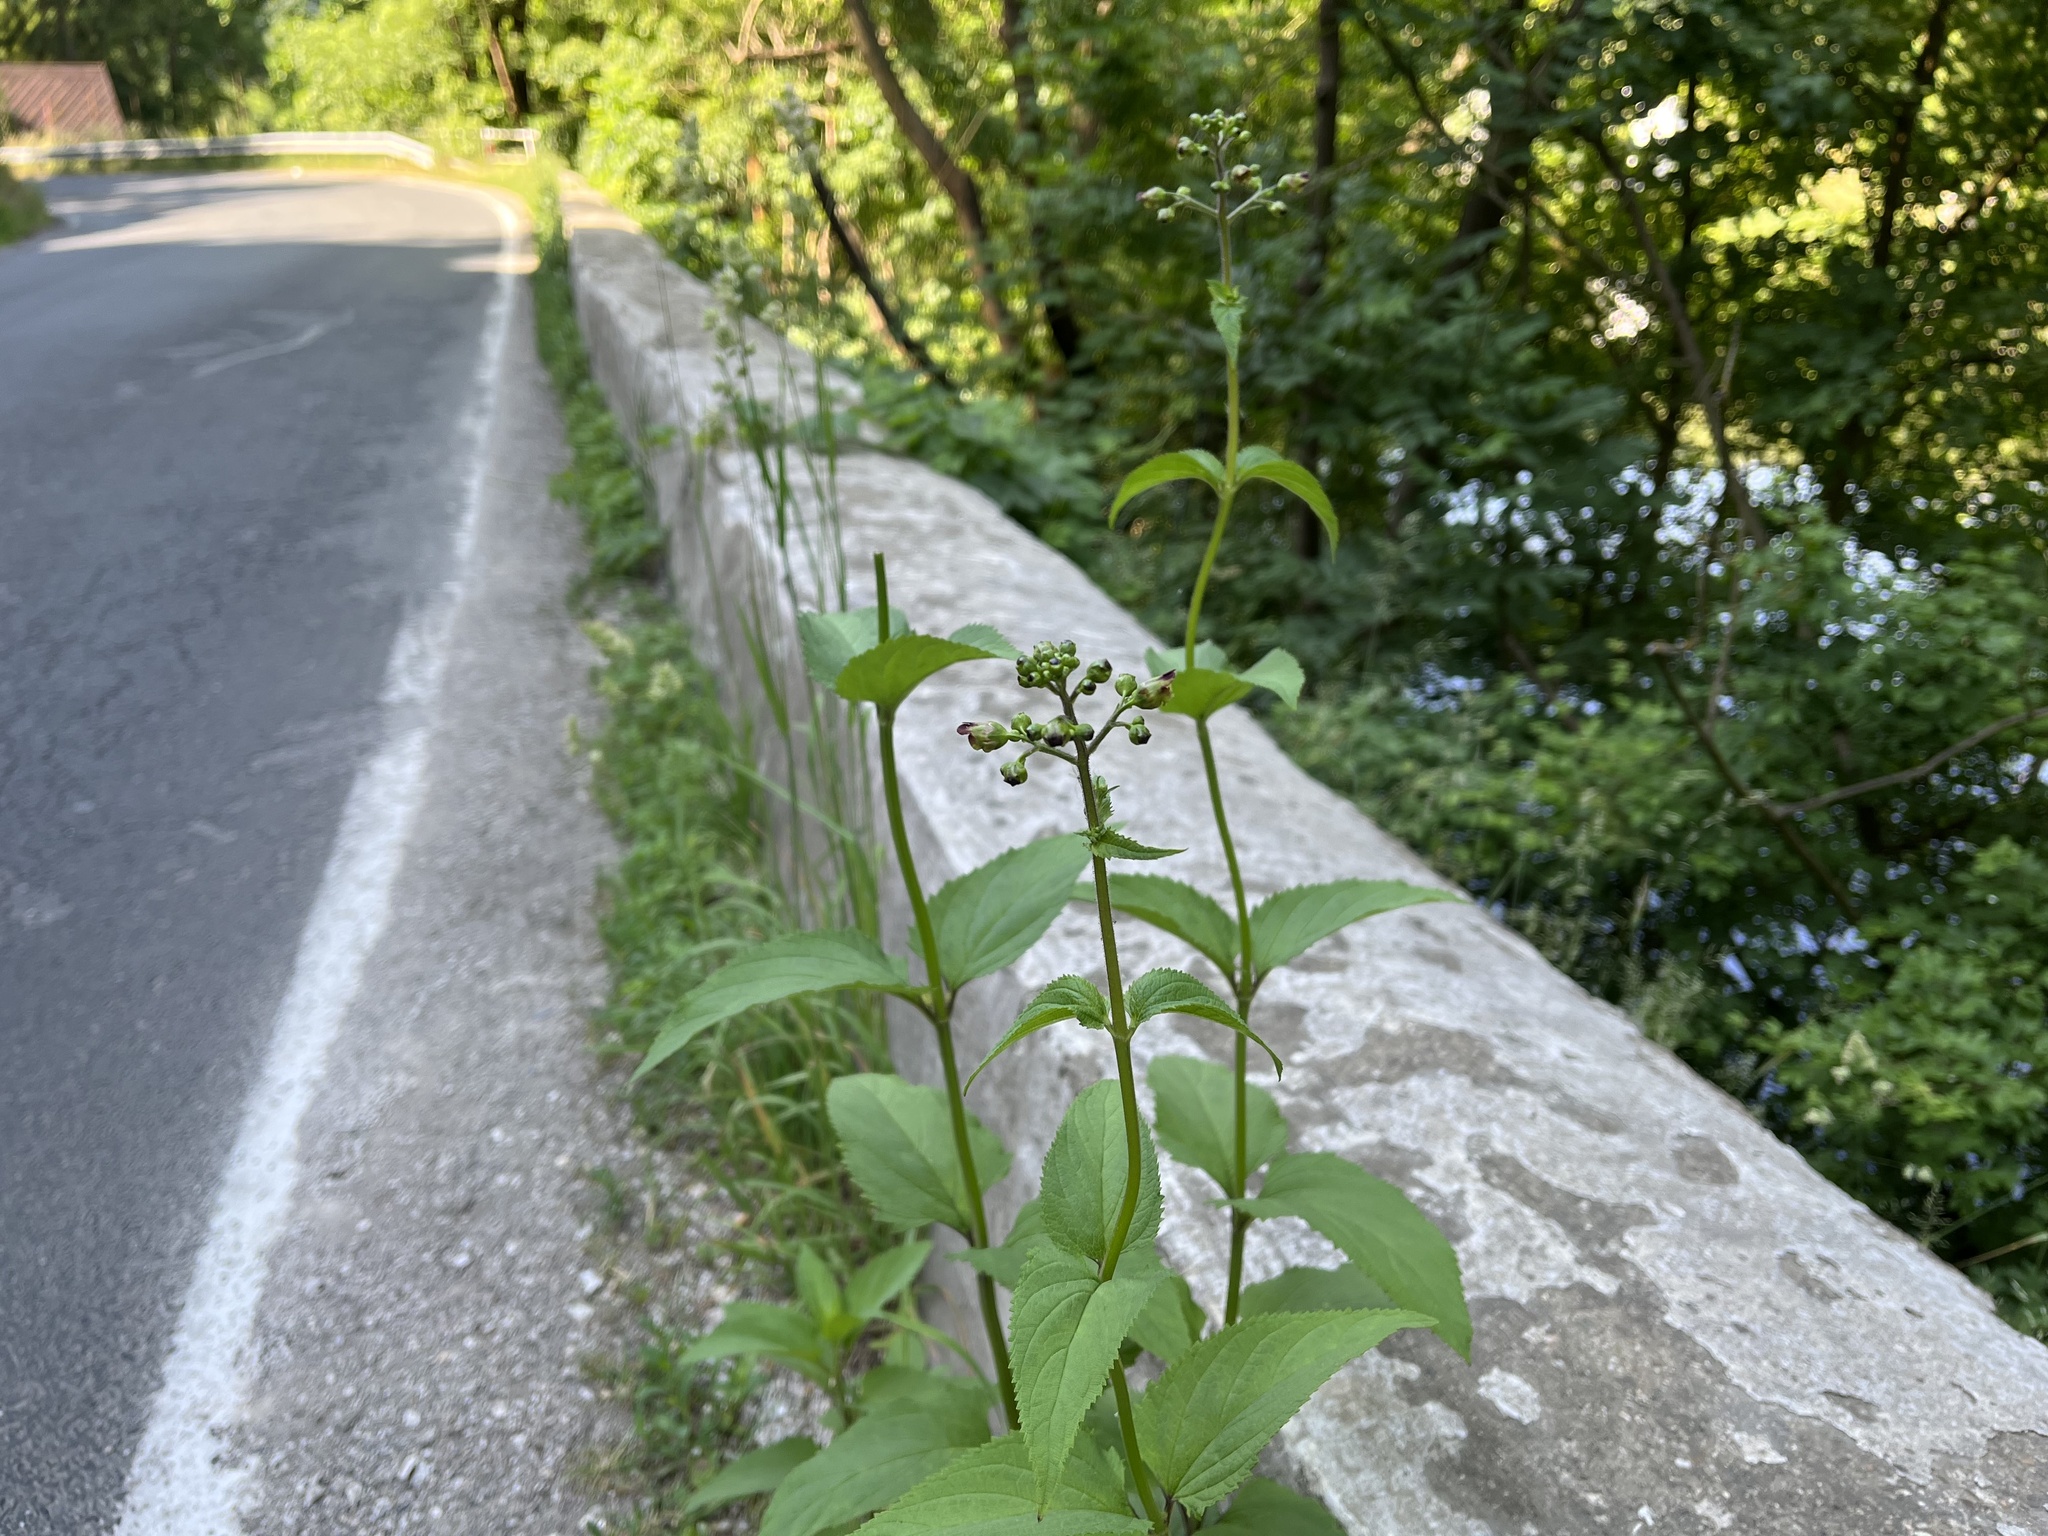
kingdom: Plantae
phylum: Tracheophyta
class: Magnoliopsida
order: Lamiales
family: Scrophulariaceae
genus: Scrophularia
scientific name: Scrophularia nodosa
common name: Common figwort
